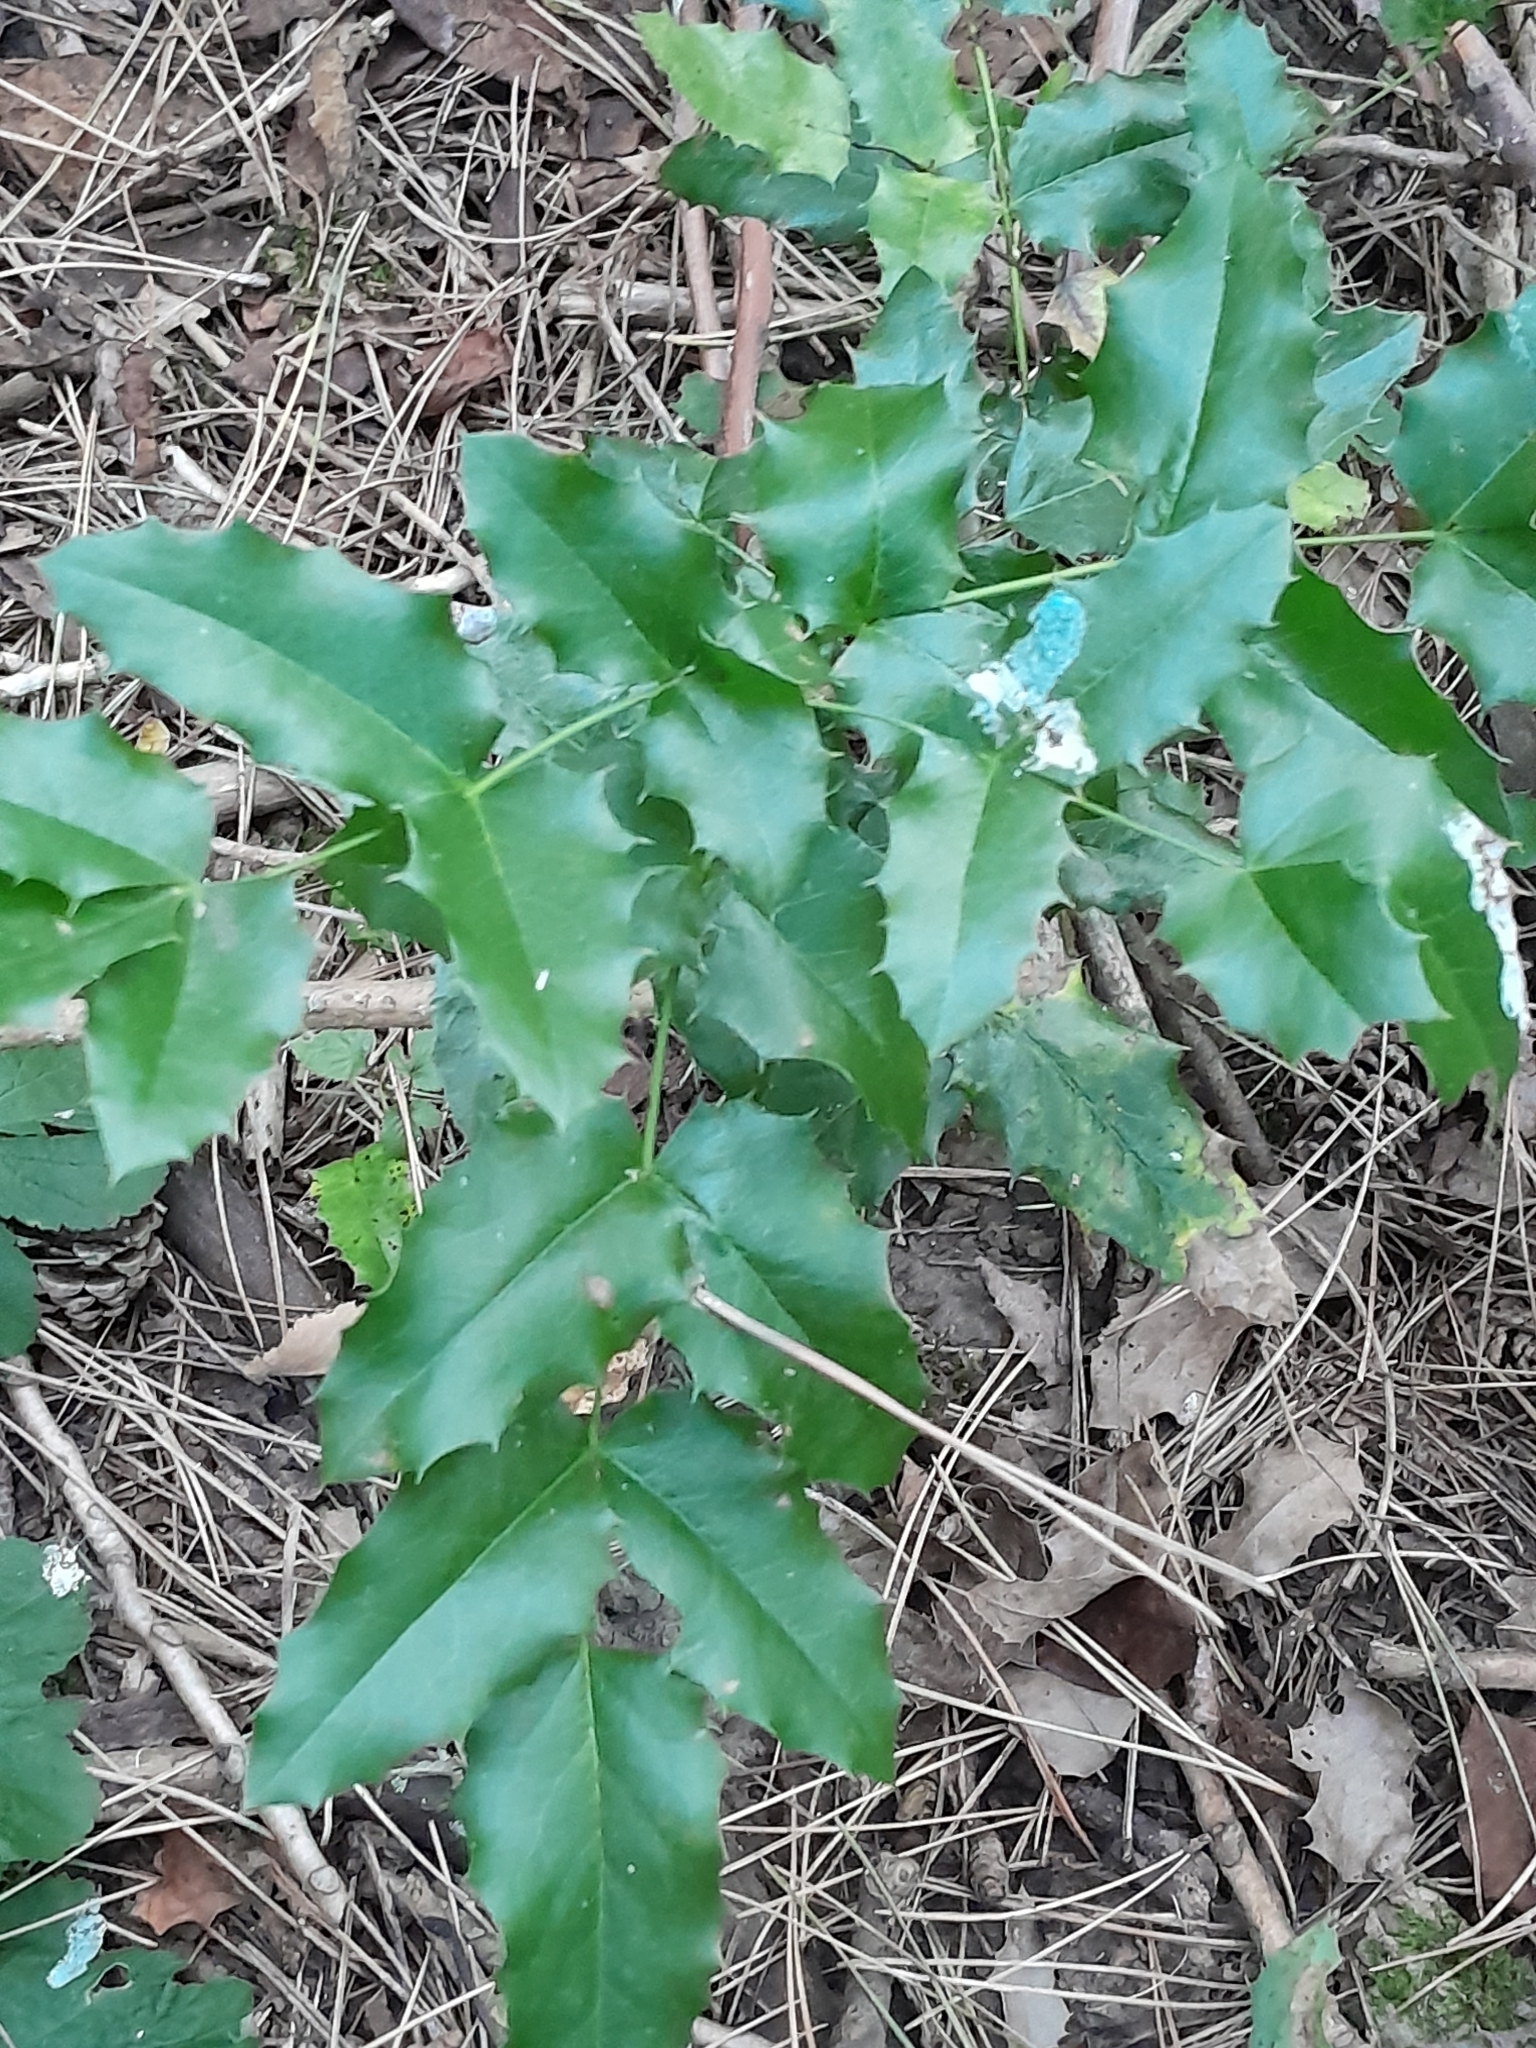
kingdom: Plantae
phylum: Tracheophyta
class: Magnoliopsida
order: Ranunculales
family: Berberidaceae
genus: Mahonia
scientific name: Mahonia aquifolium
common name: Oregon-grape
